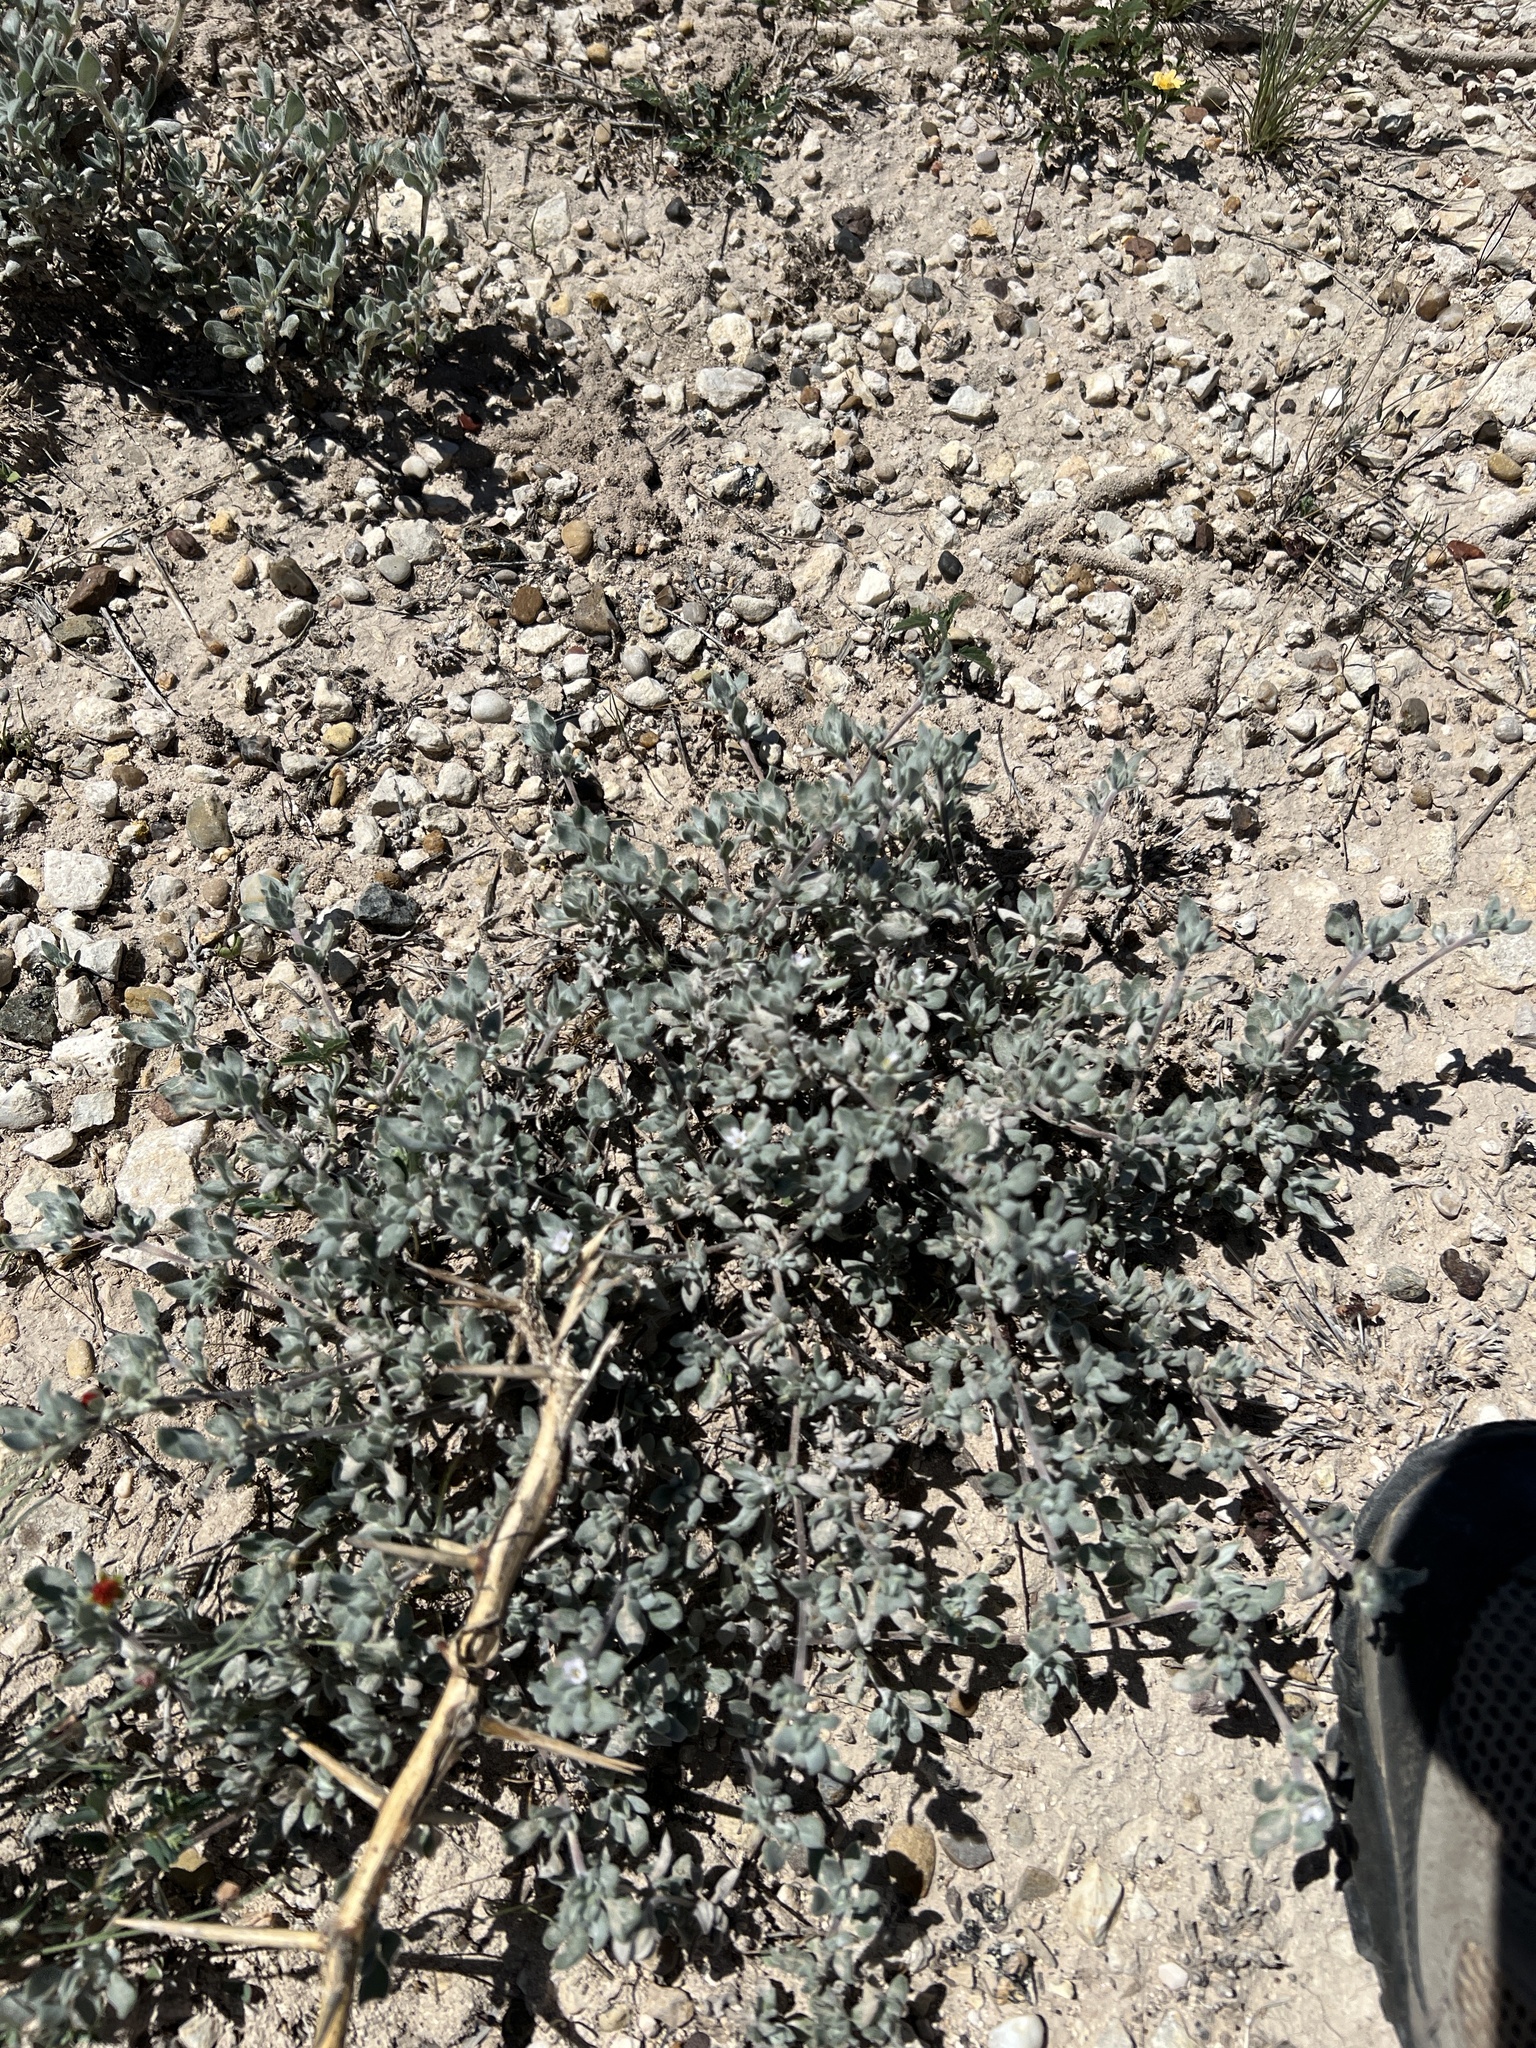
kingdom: Plantae
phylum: Tracheophyta
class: Magnoliopsida
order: Boraginales
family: Ehretiaceae
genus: Tiquilia
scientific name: Tiquilia canescens
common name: Hairy tiquilia
